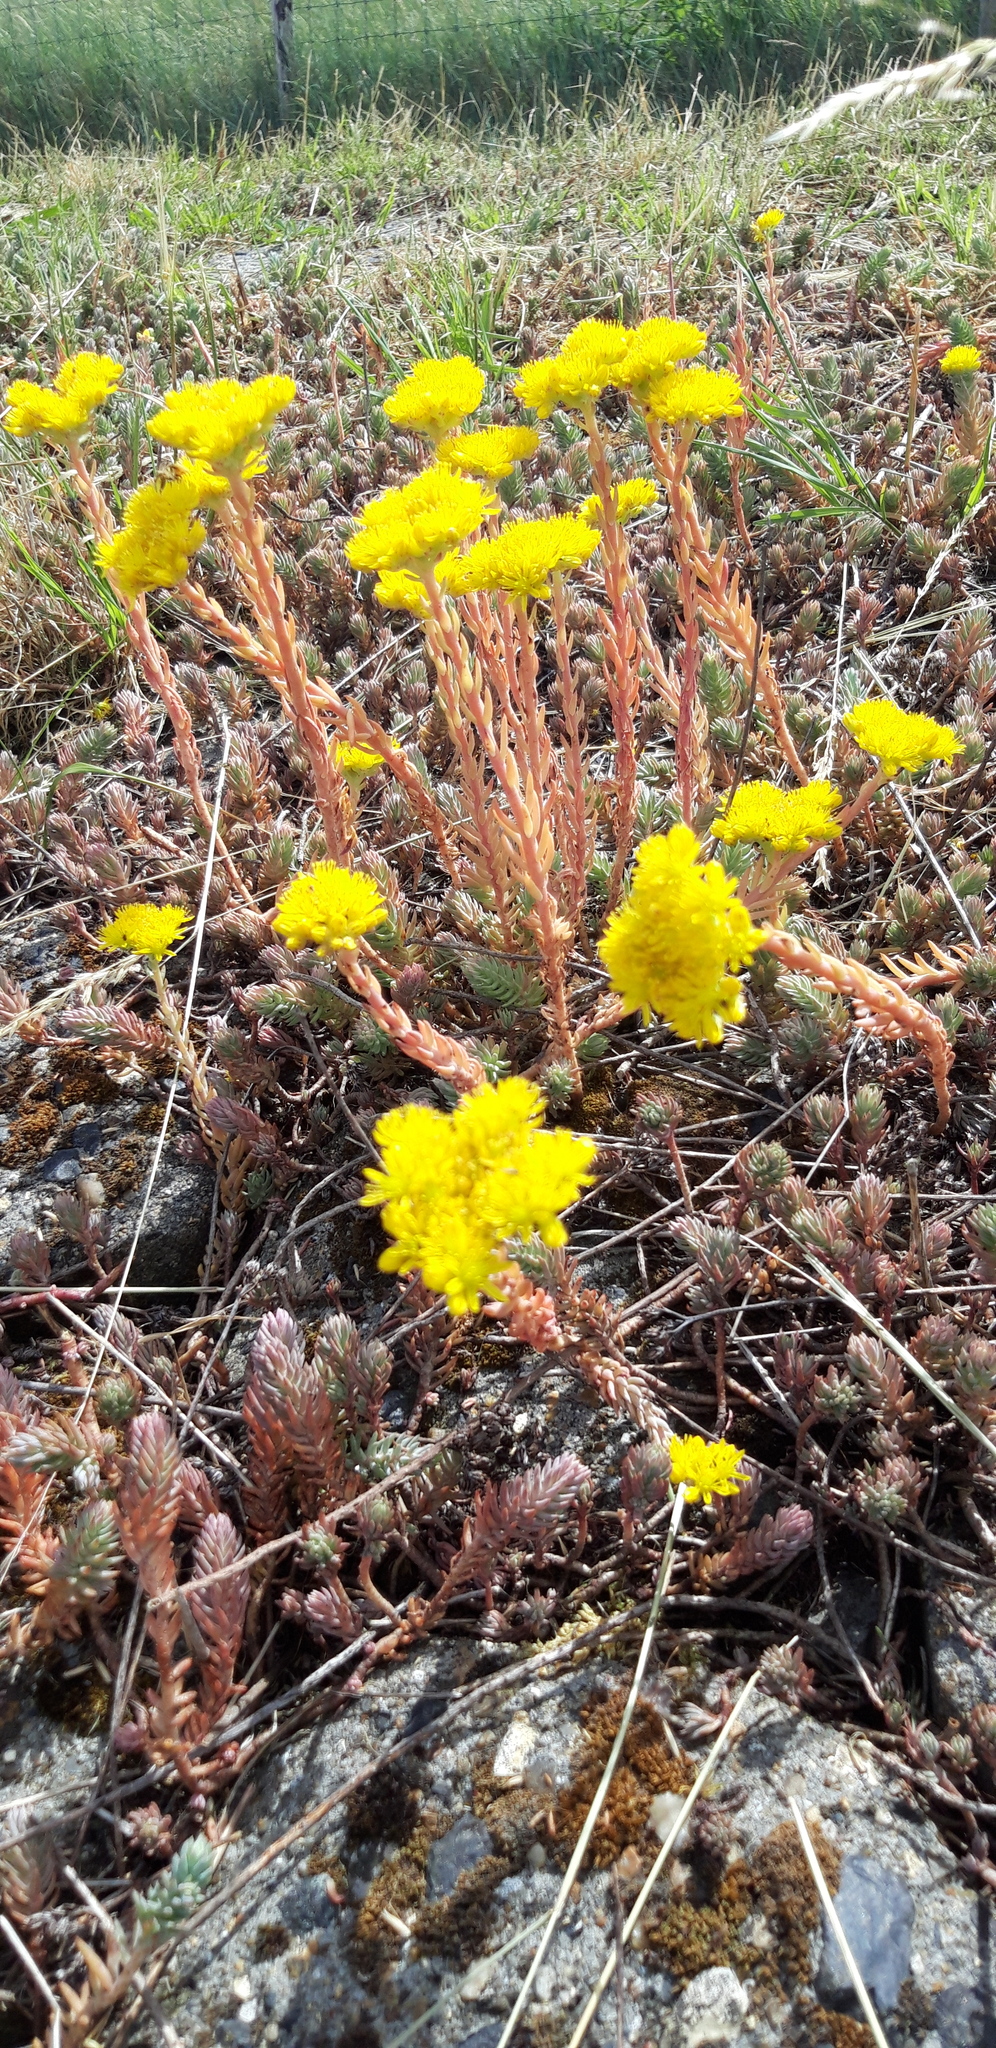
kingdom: Plantae
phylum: Tracheophyta
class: Magnoliopsida
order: Saxifragales
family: Crassulaceae
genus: Petrosedum
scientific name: Petrosedum rupestre
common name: Jenny's stonecrop
